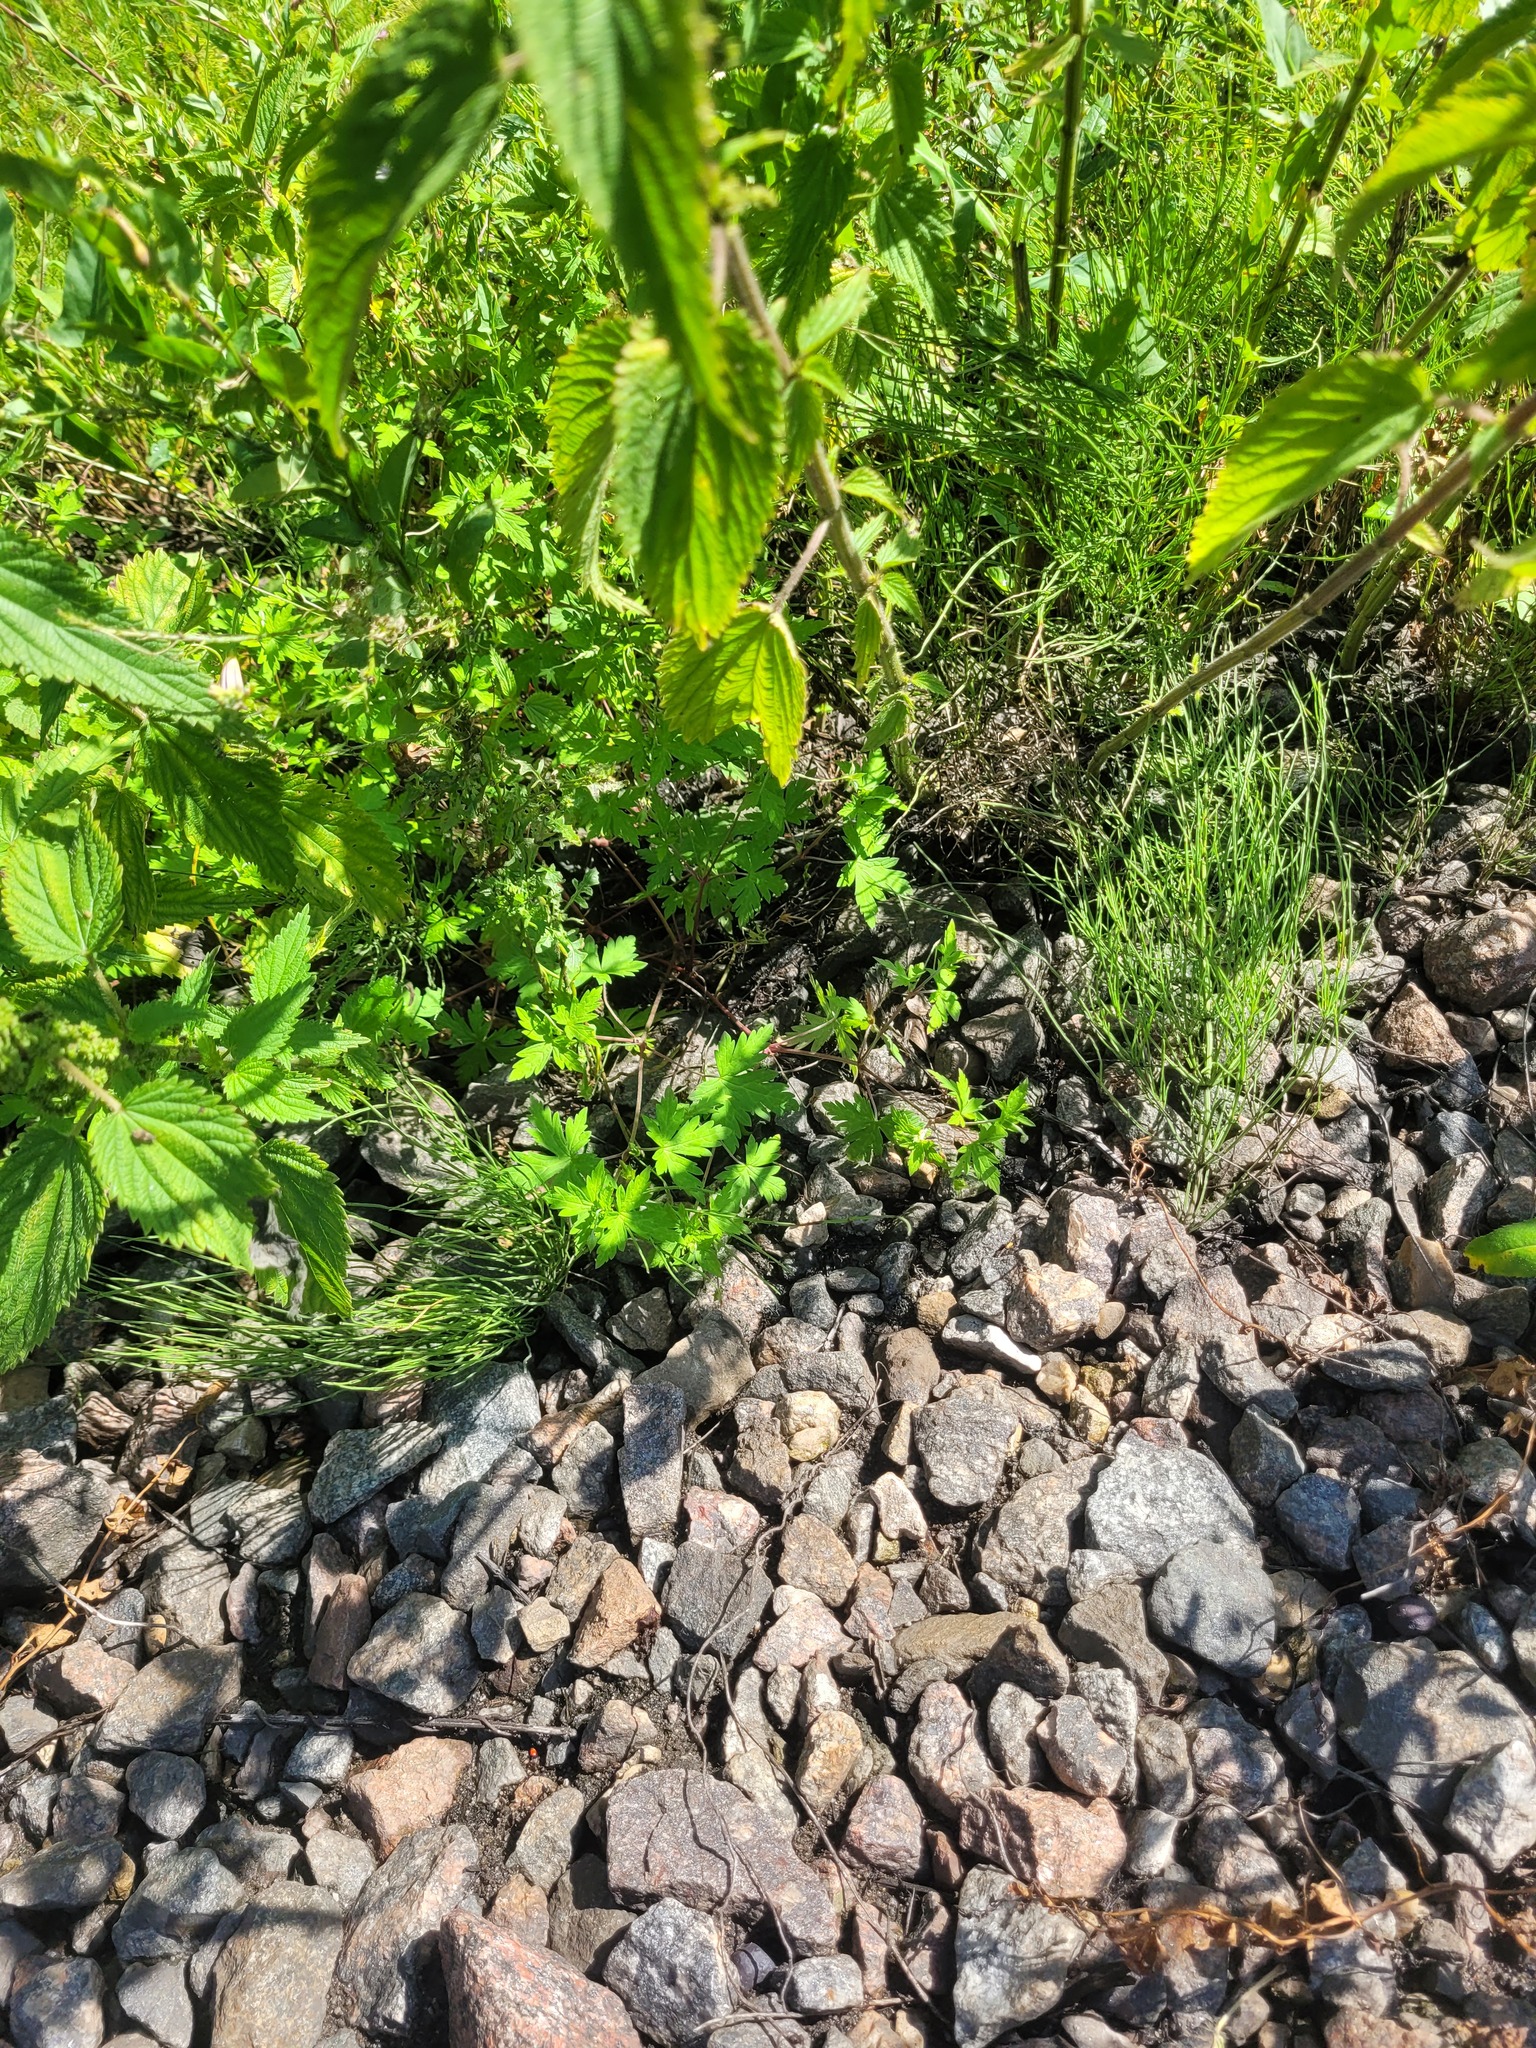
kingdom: Plantae
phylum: Tracheophyta
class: Magnoliopsida
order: Geraniales
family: Geraniaceae
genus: Geranium
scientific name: Geranium sibiricum
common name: Siberian crane's-bill
